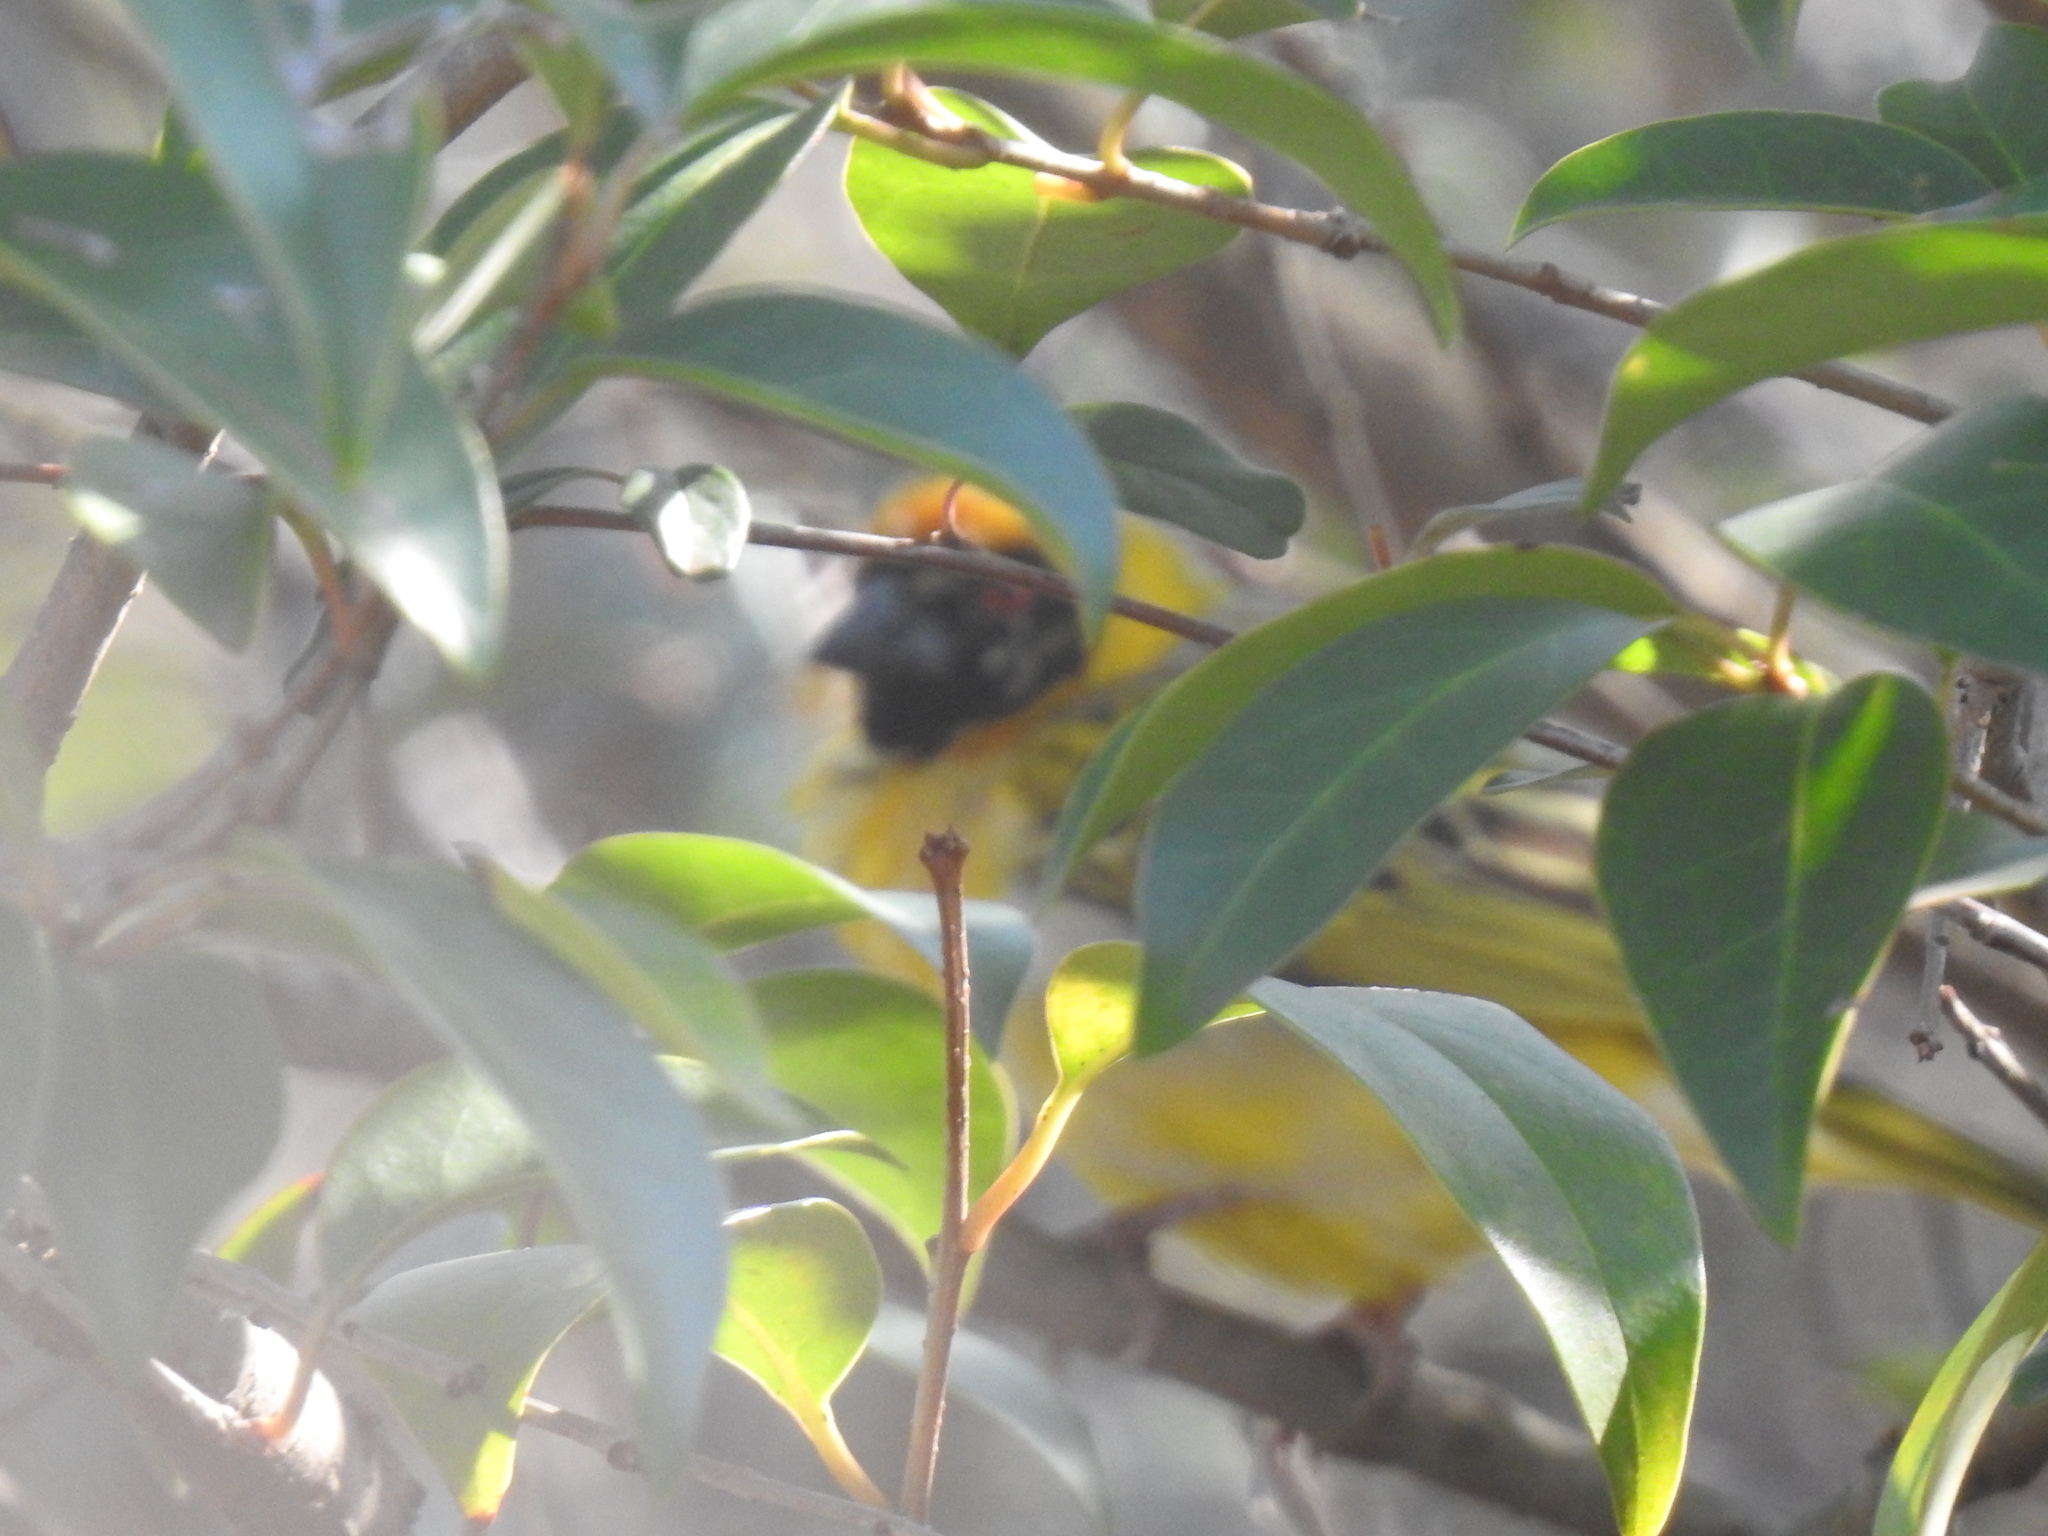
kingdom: Animalia
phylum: Chordata
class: Aves
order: Passeriformes
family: Ploceidae
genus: Ploceus
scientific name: Ploceus velatus
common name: Southern masked weaver
